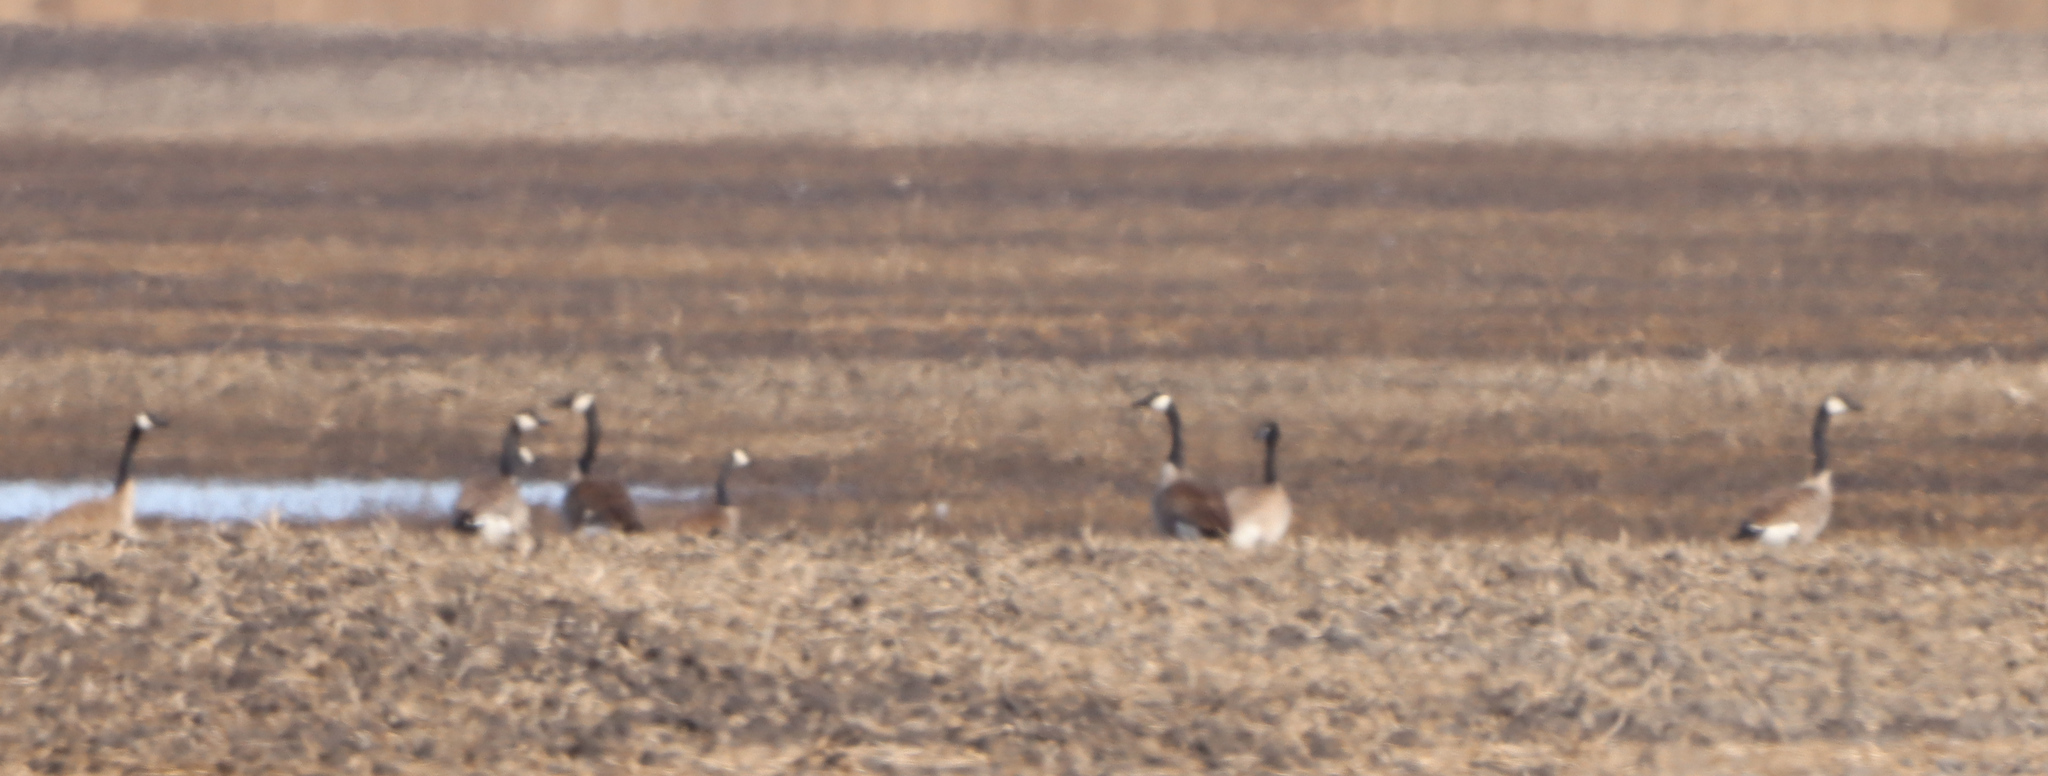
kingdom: Animalia
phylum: Chordata
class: Aves
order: Anseriformes
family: Anatidae
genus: Branta
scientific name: Branta canadensis
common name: Canada goose
